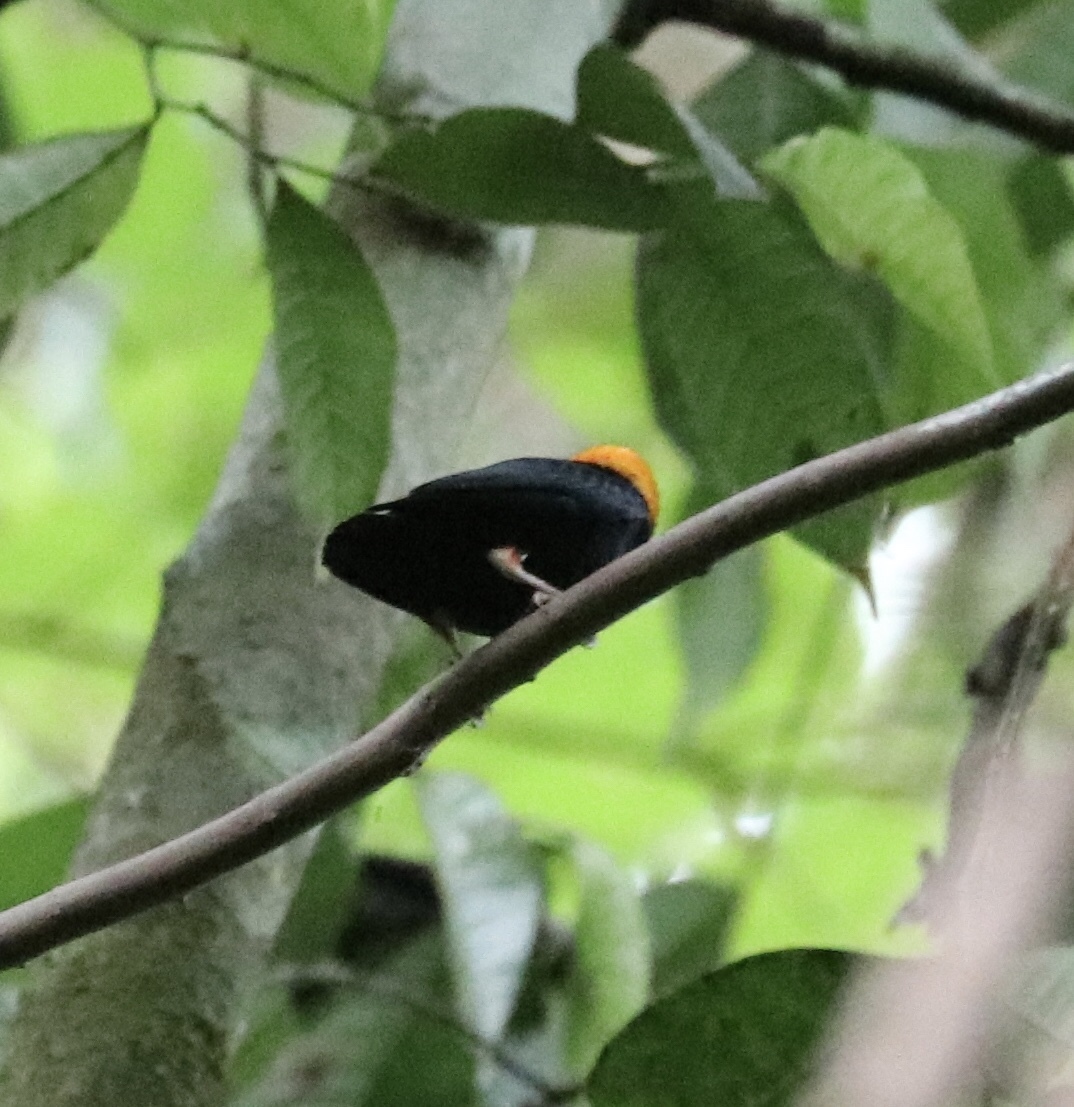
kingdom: Animalia
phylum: Chordata
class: Aves
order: Passeriformes
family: Pipridae
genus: Pipra
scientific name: Pipra erythrocephala
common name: Golden-headed manakin
